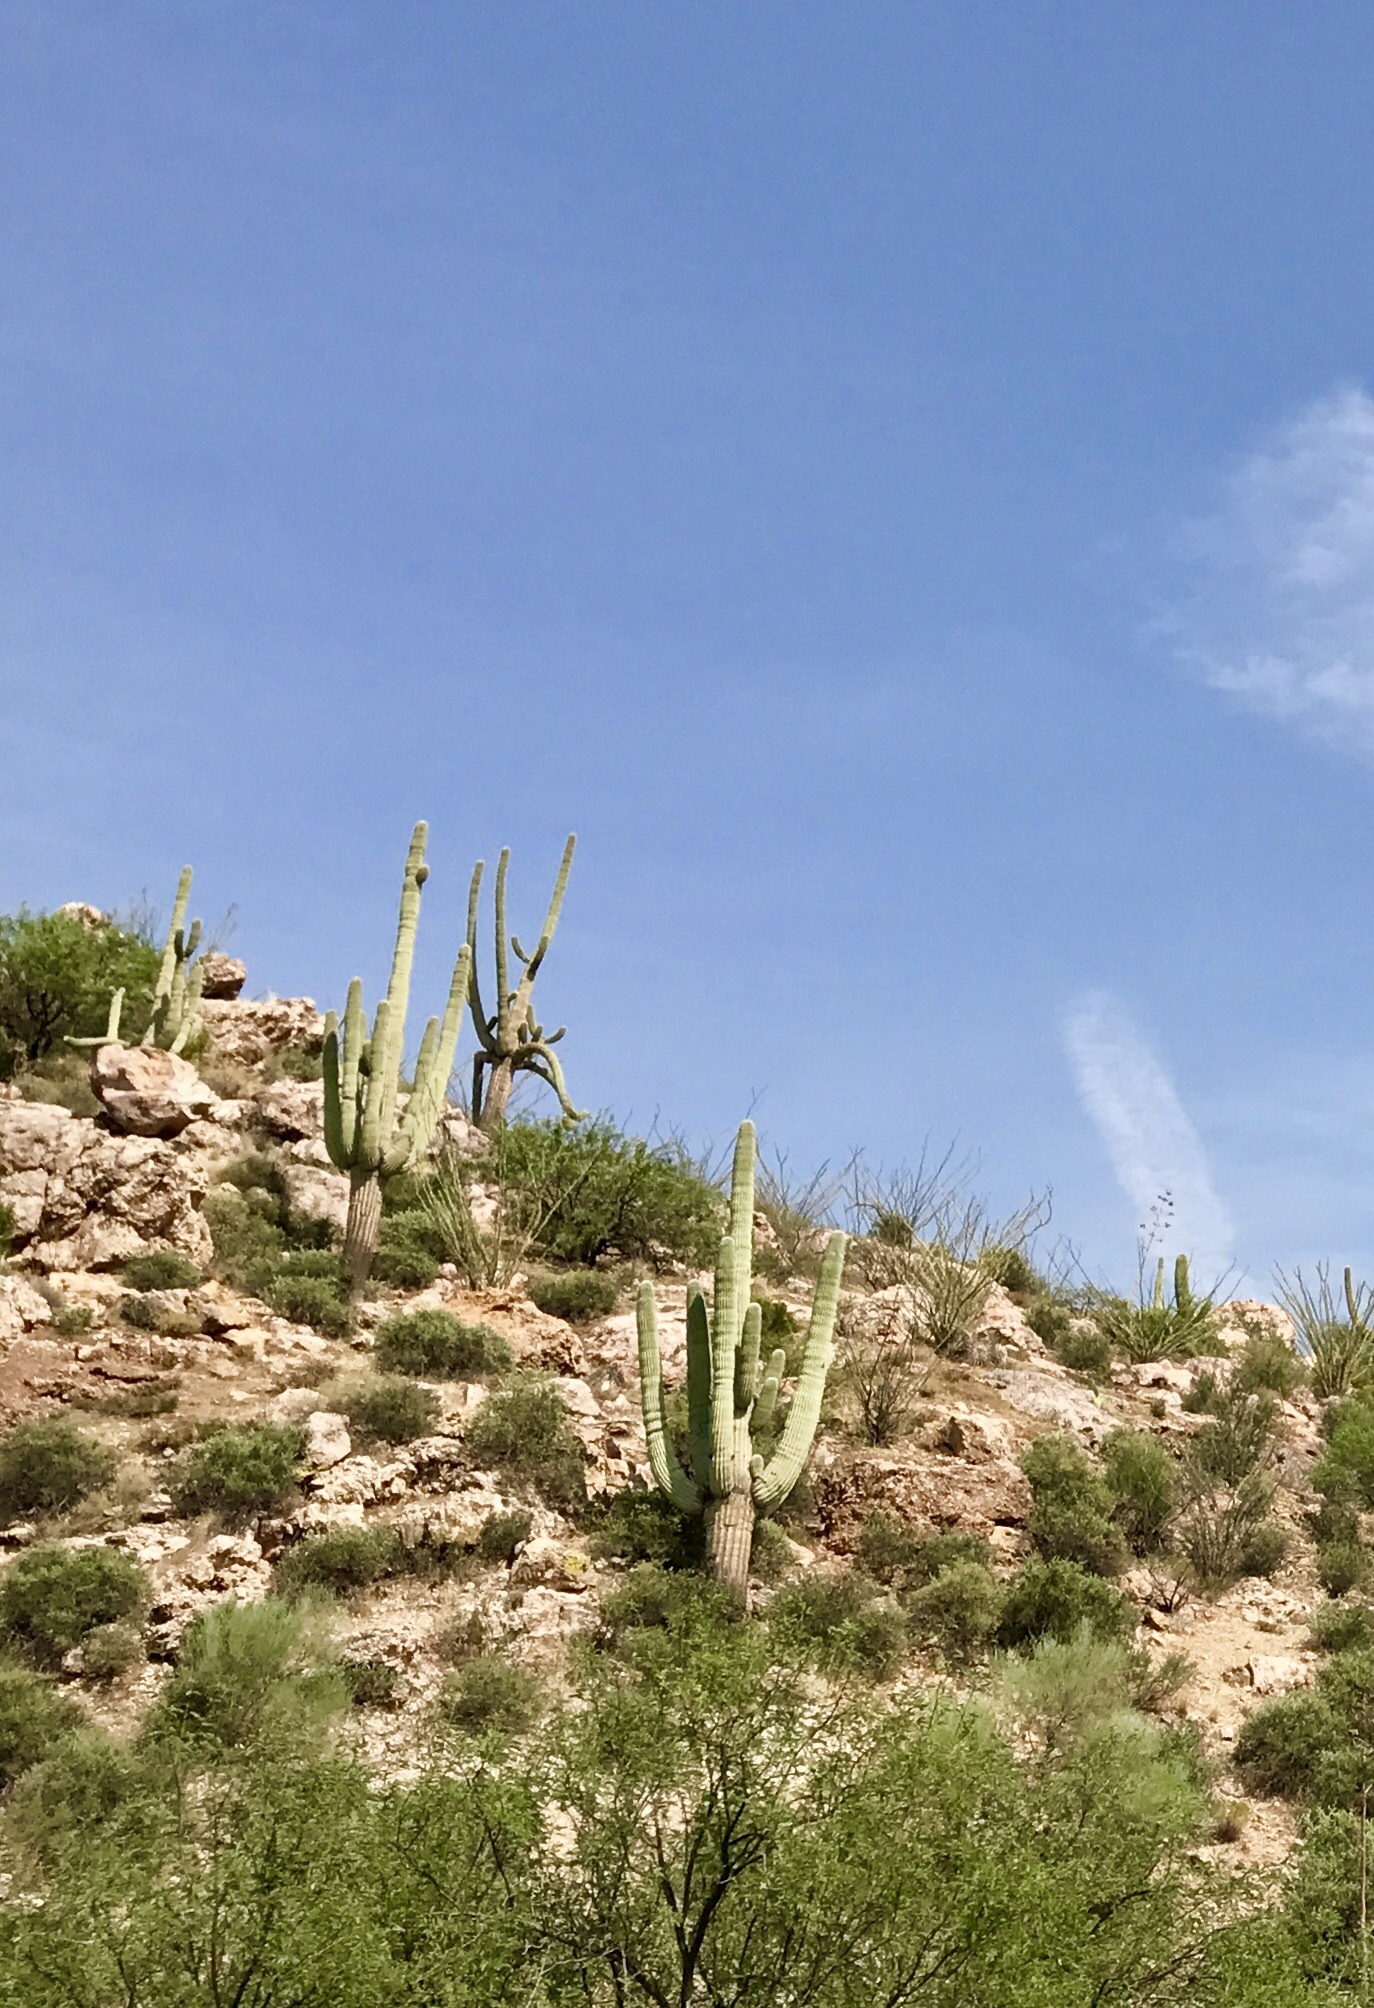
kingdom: Plantae
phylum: Tracheophyta
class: Magnoliopsida
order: Caryophyllales
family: Cactaceae
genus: Carnegiea
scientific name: Carnegiea gigantea
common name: Saguaro
